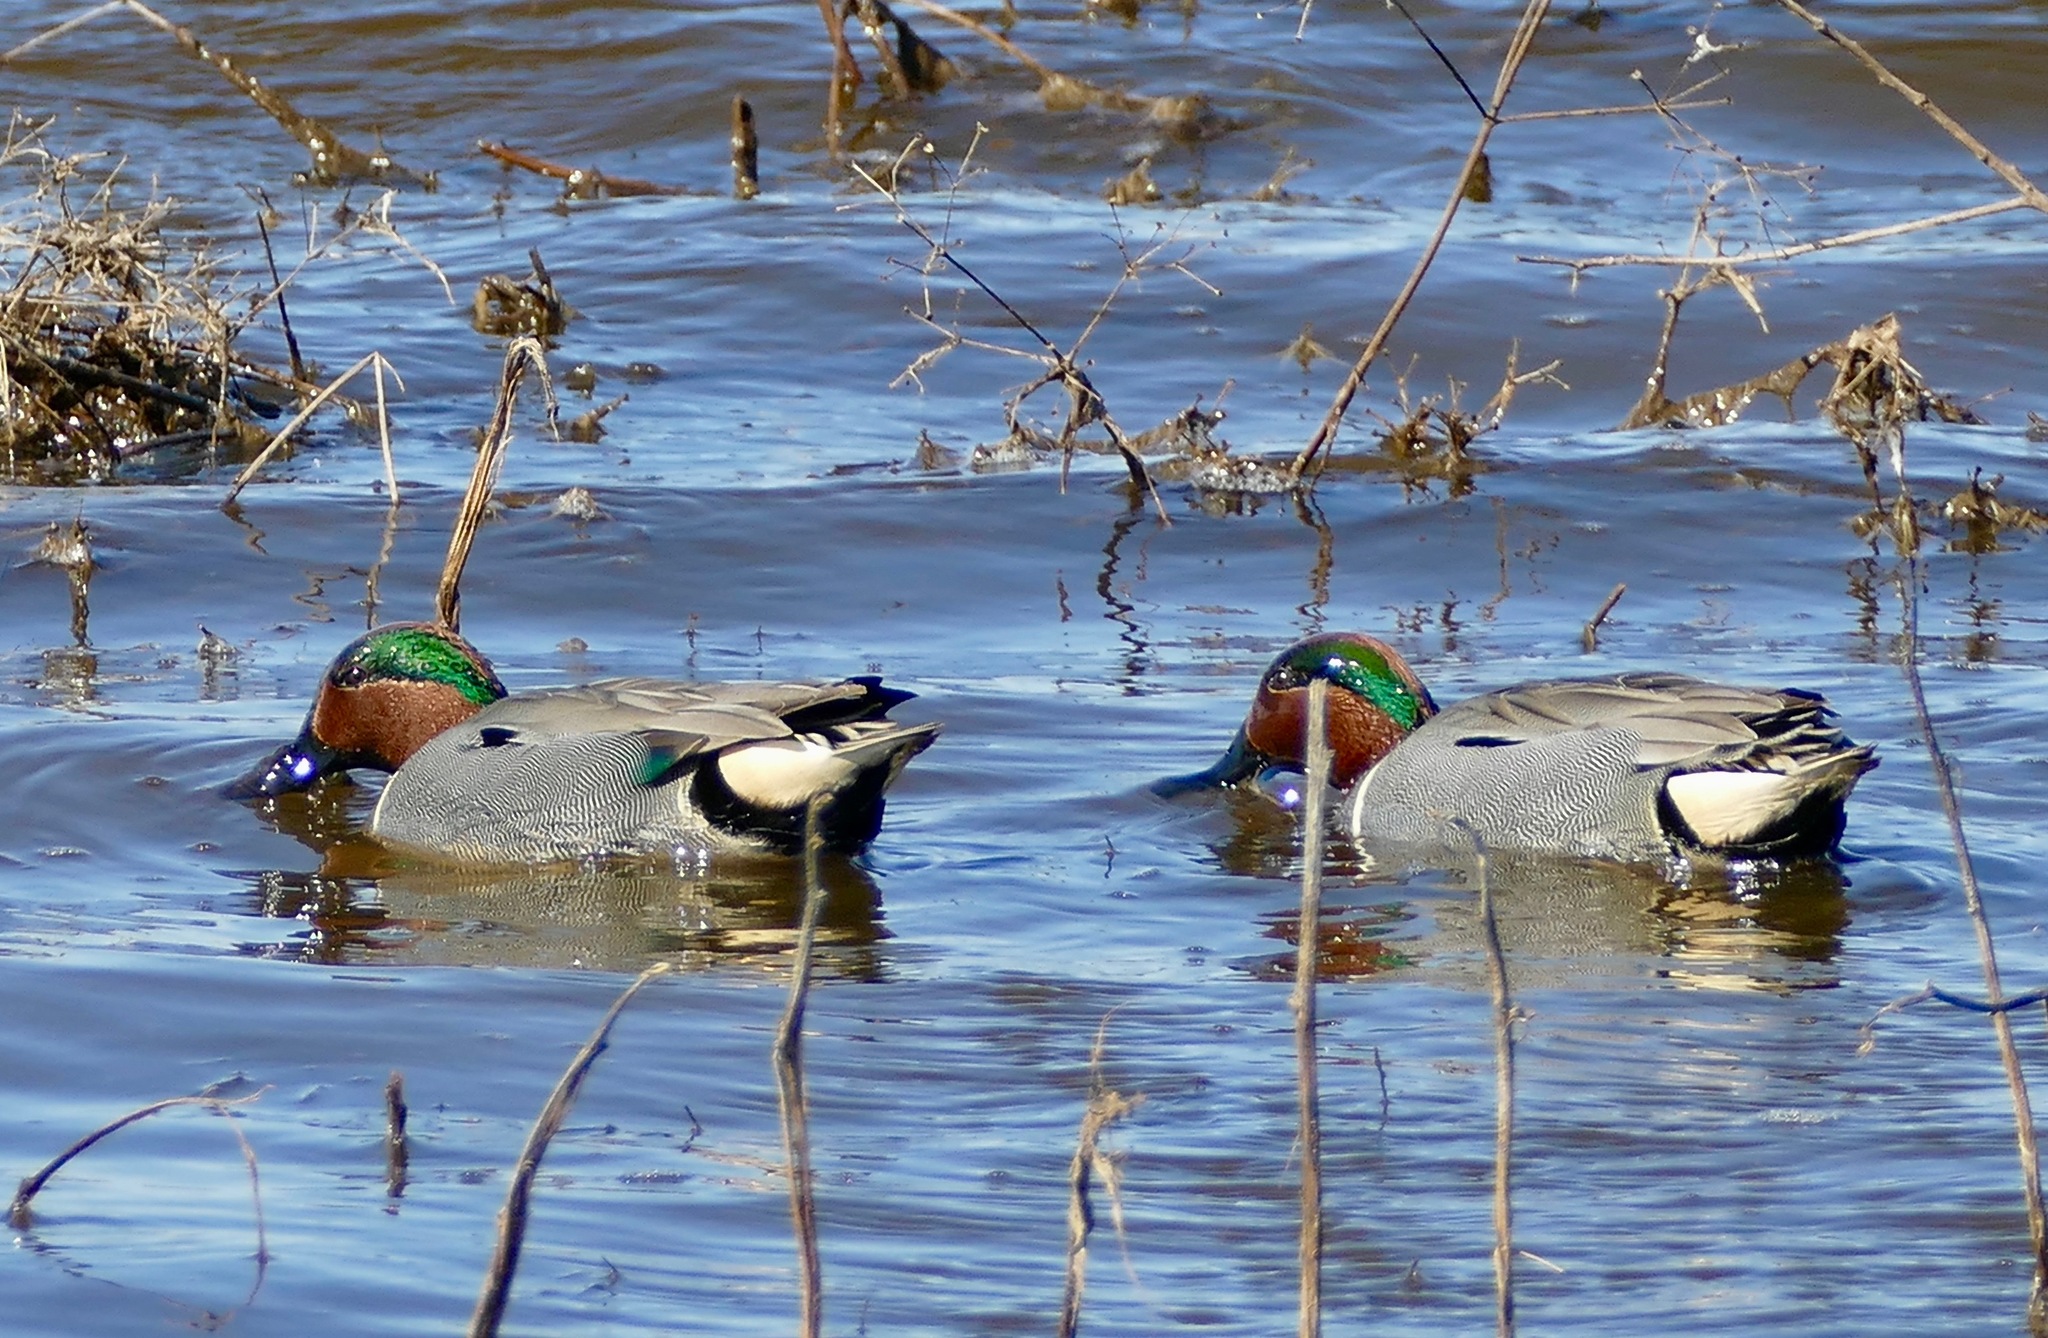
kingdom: Animalia
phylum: Chordata
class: Aves
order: Anseriformes
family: Anatidae
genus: Anas
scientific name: Anas crecca
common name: Eurasian teal
